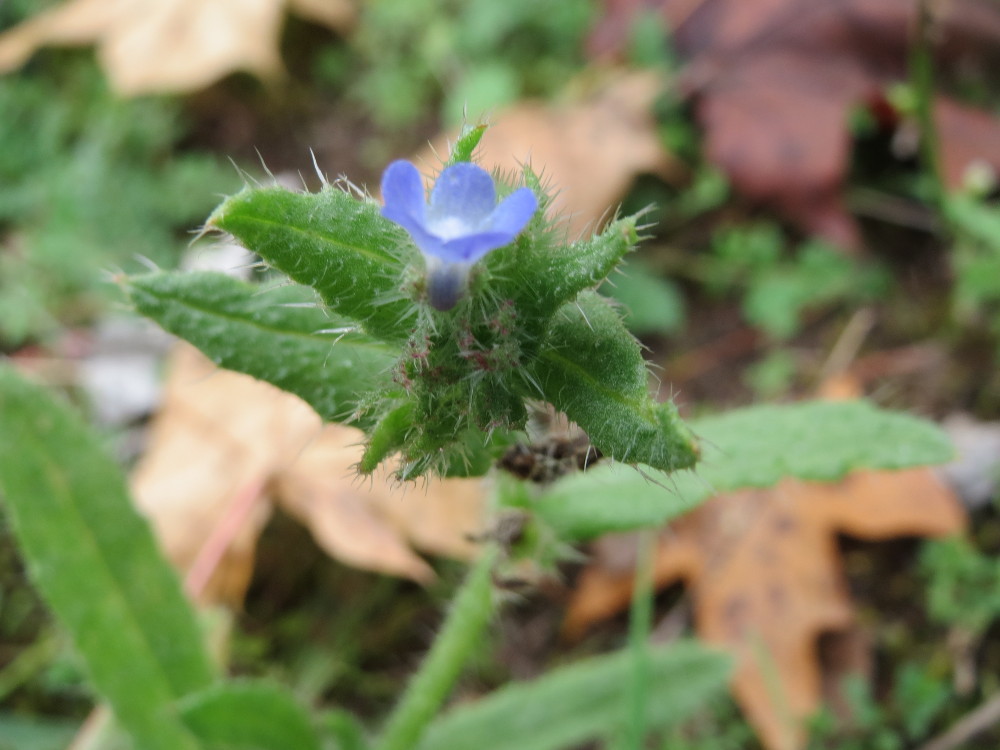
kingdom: Plantae
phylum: Tracheophyta
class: Magnoliopsida
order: Boraginales
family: Boraginaceae
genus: Lycopsis
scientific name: Lycopsis arvensis
